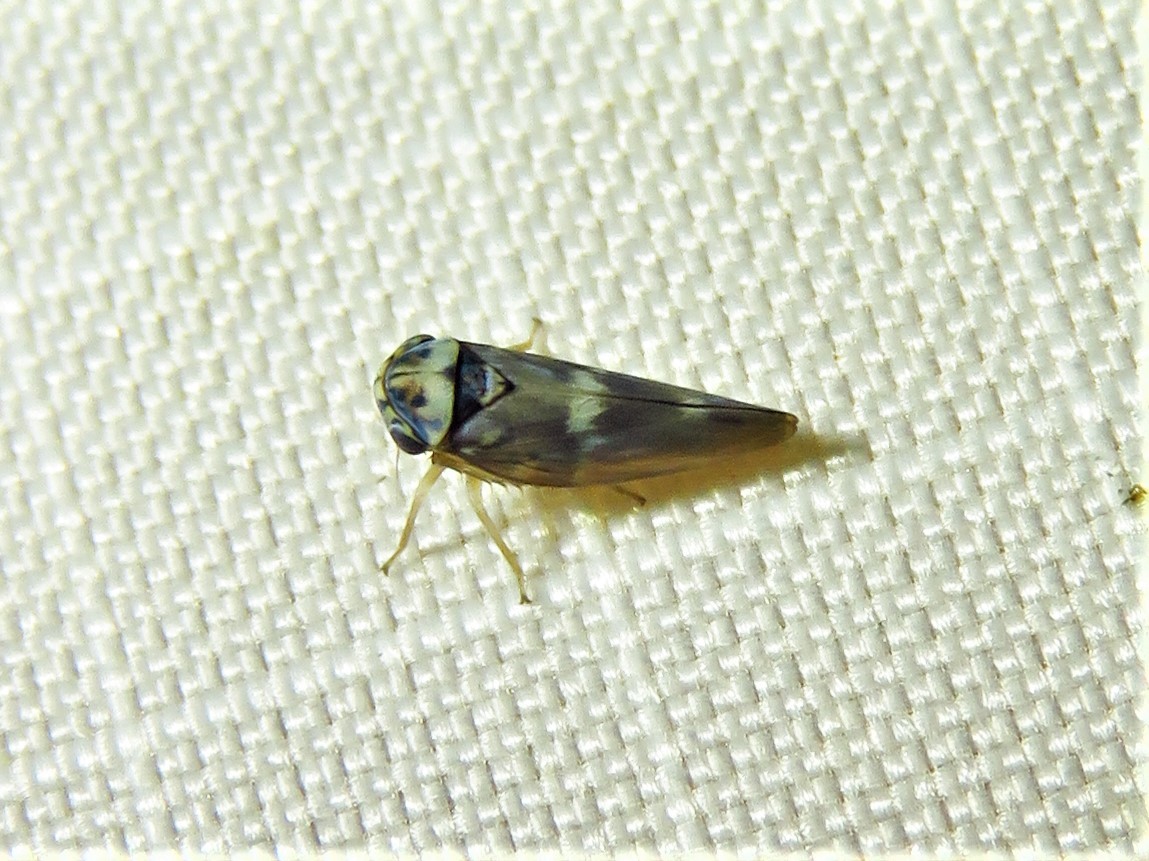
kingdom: Animalia
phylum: Arthropoda
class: Insecta
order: Hemiptera
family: Cicadellidae
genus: Agalliopsis
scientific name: Agalliopsis cervina
